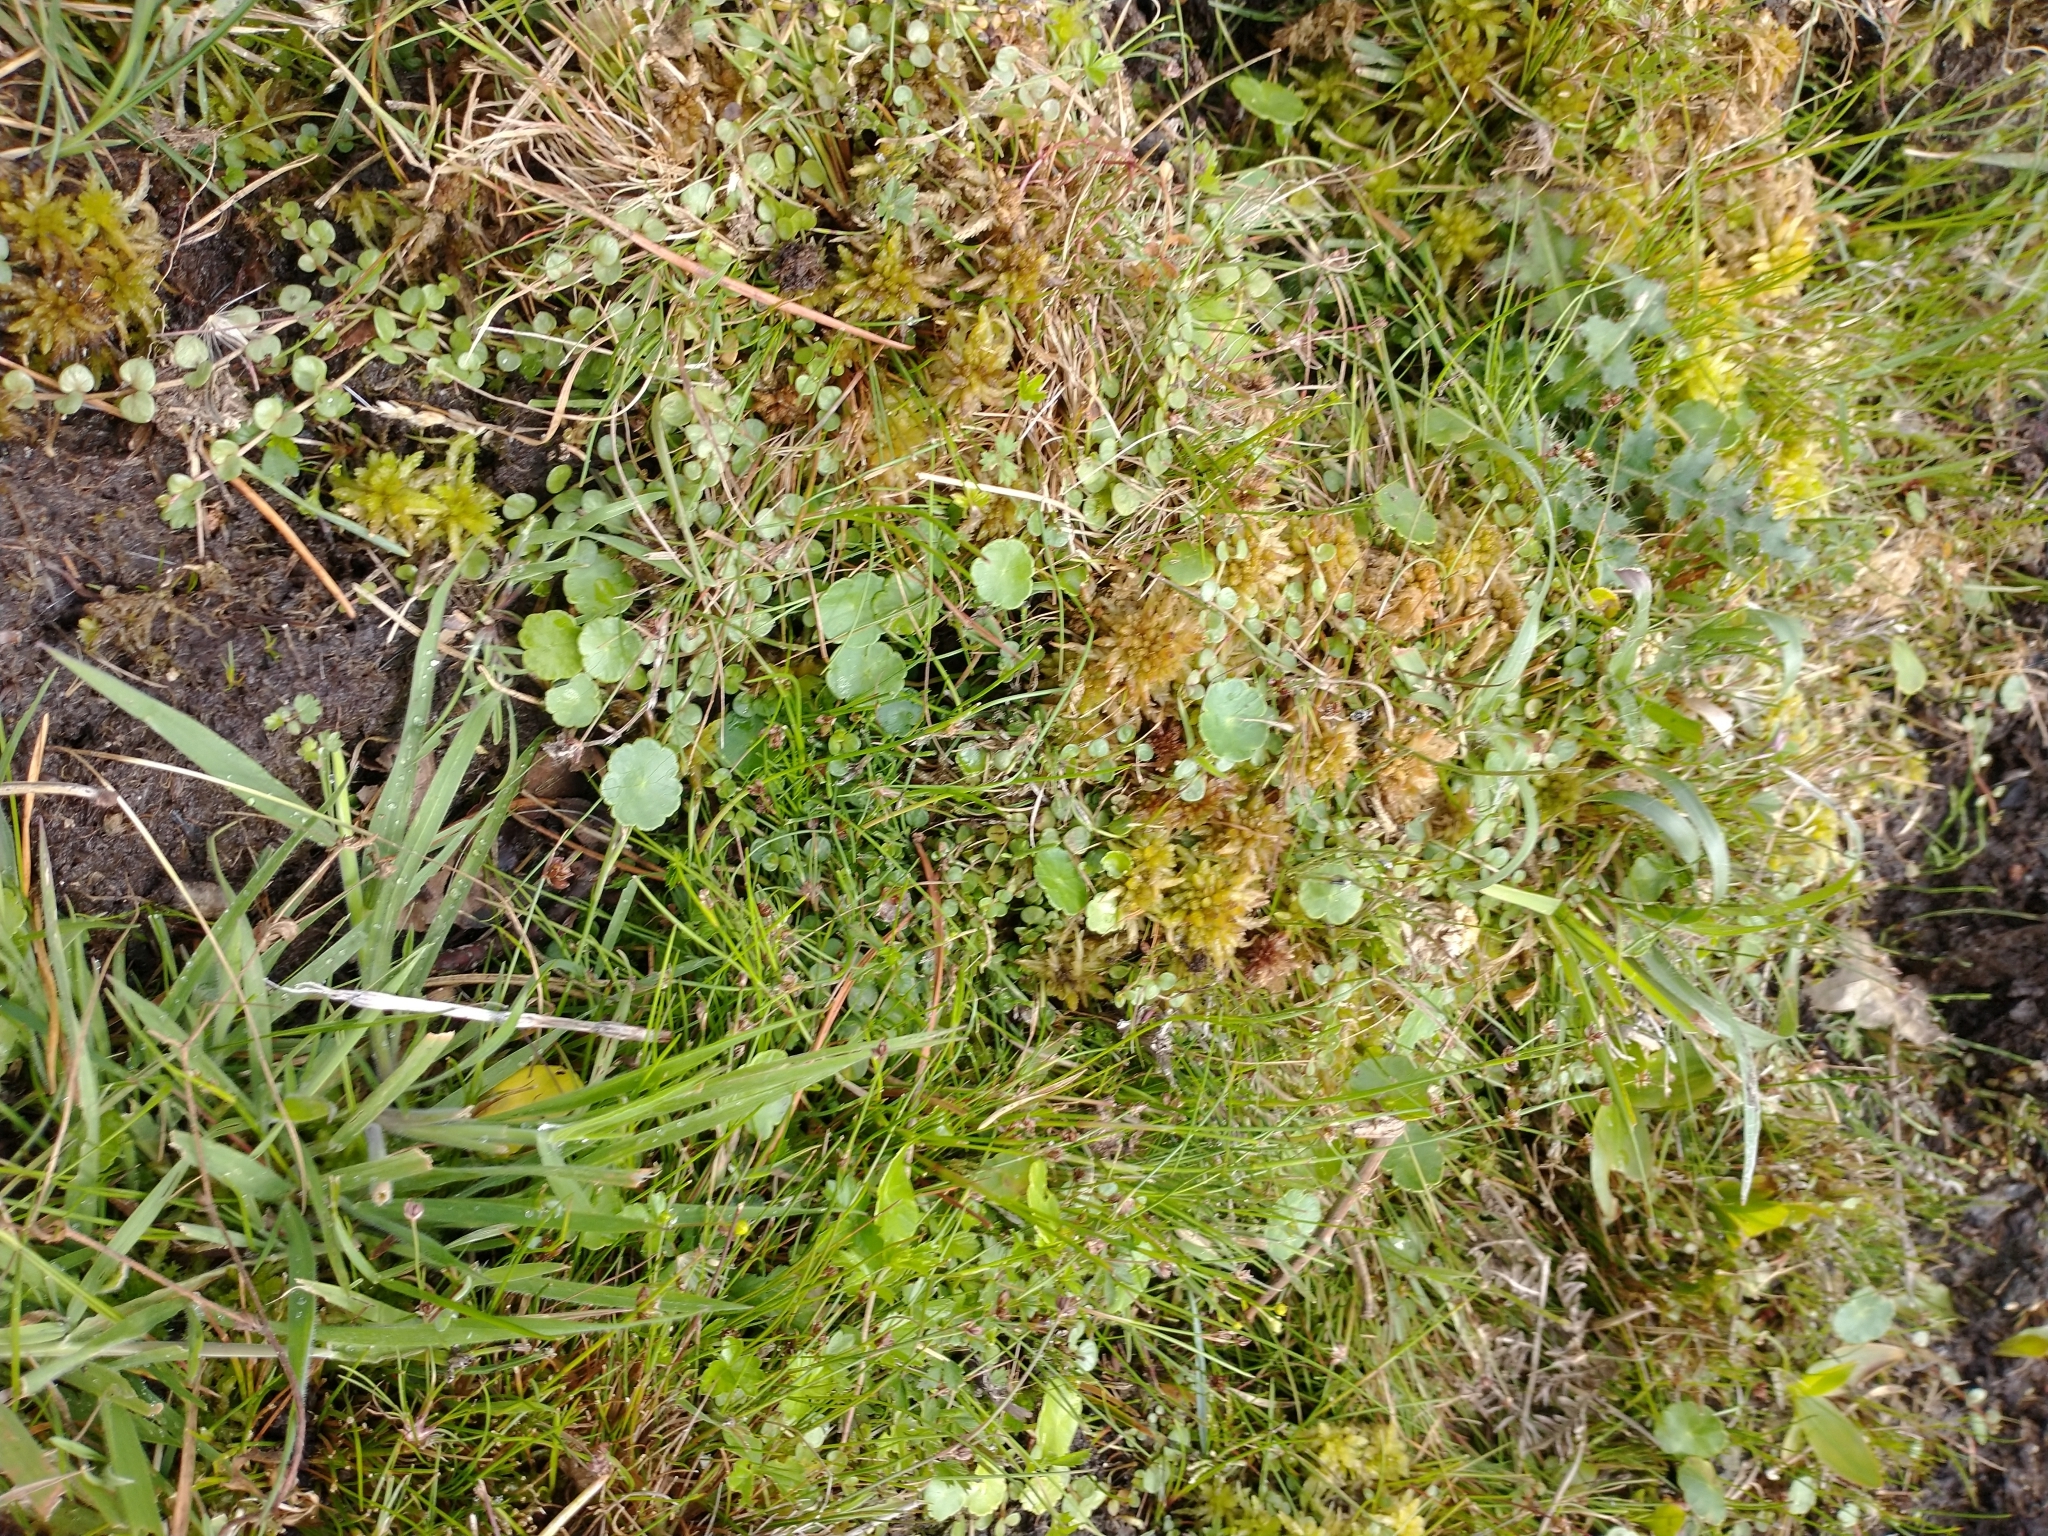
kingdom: Plantae
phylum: Tracheophyta
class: Magnoliopsida
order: Ericales
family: Primulaceae
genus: Lysimachia
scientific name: Lysimachia tenella
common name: European bog pimpernel
